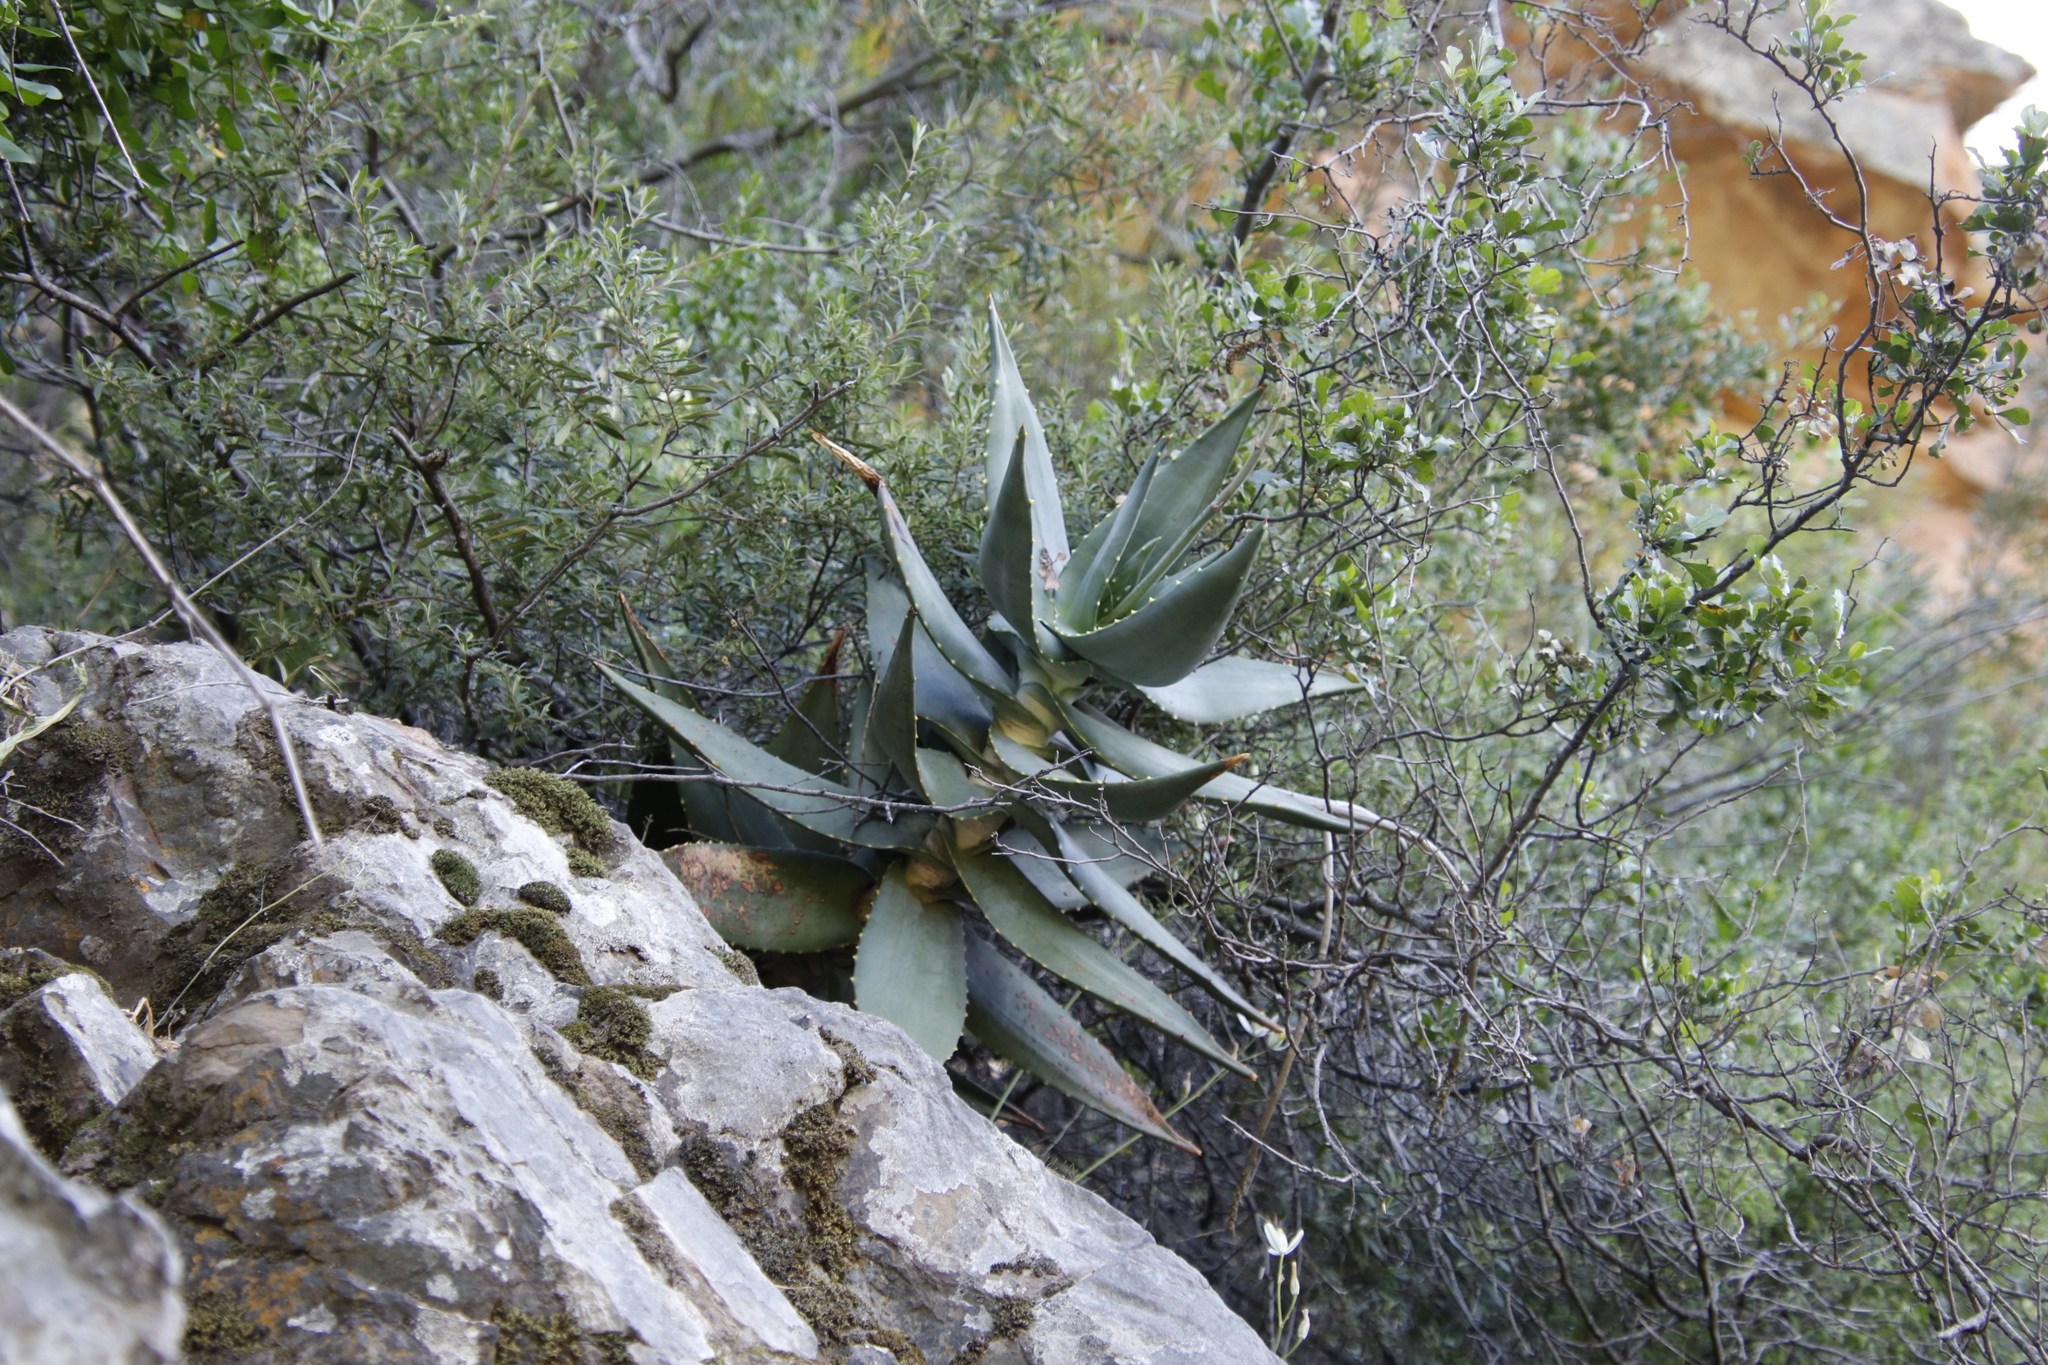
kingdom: Plantae
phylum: Tracheophyta
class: Liliopsida
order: Asparagales
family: Asphodelaceae
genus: Aloe
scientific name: Aloe perfoliata
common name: Mitra aloe
